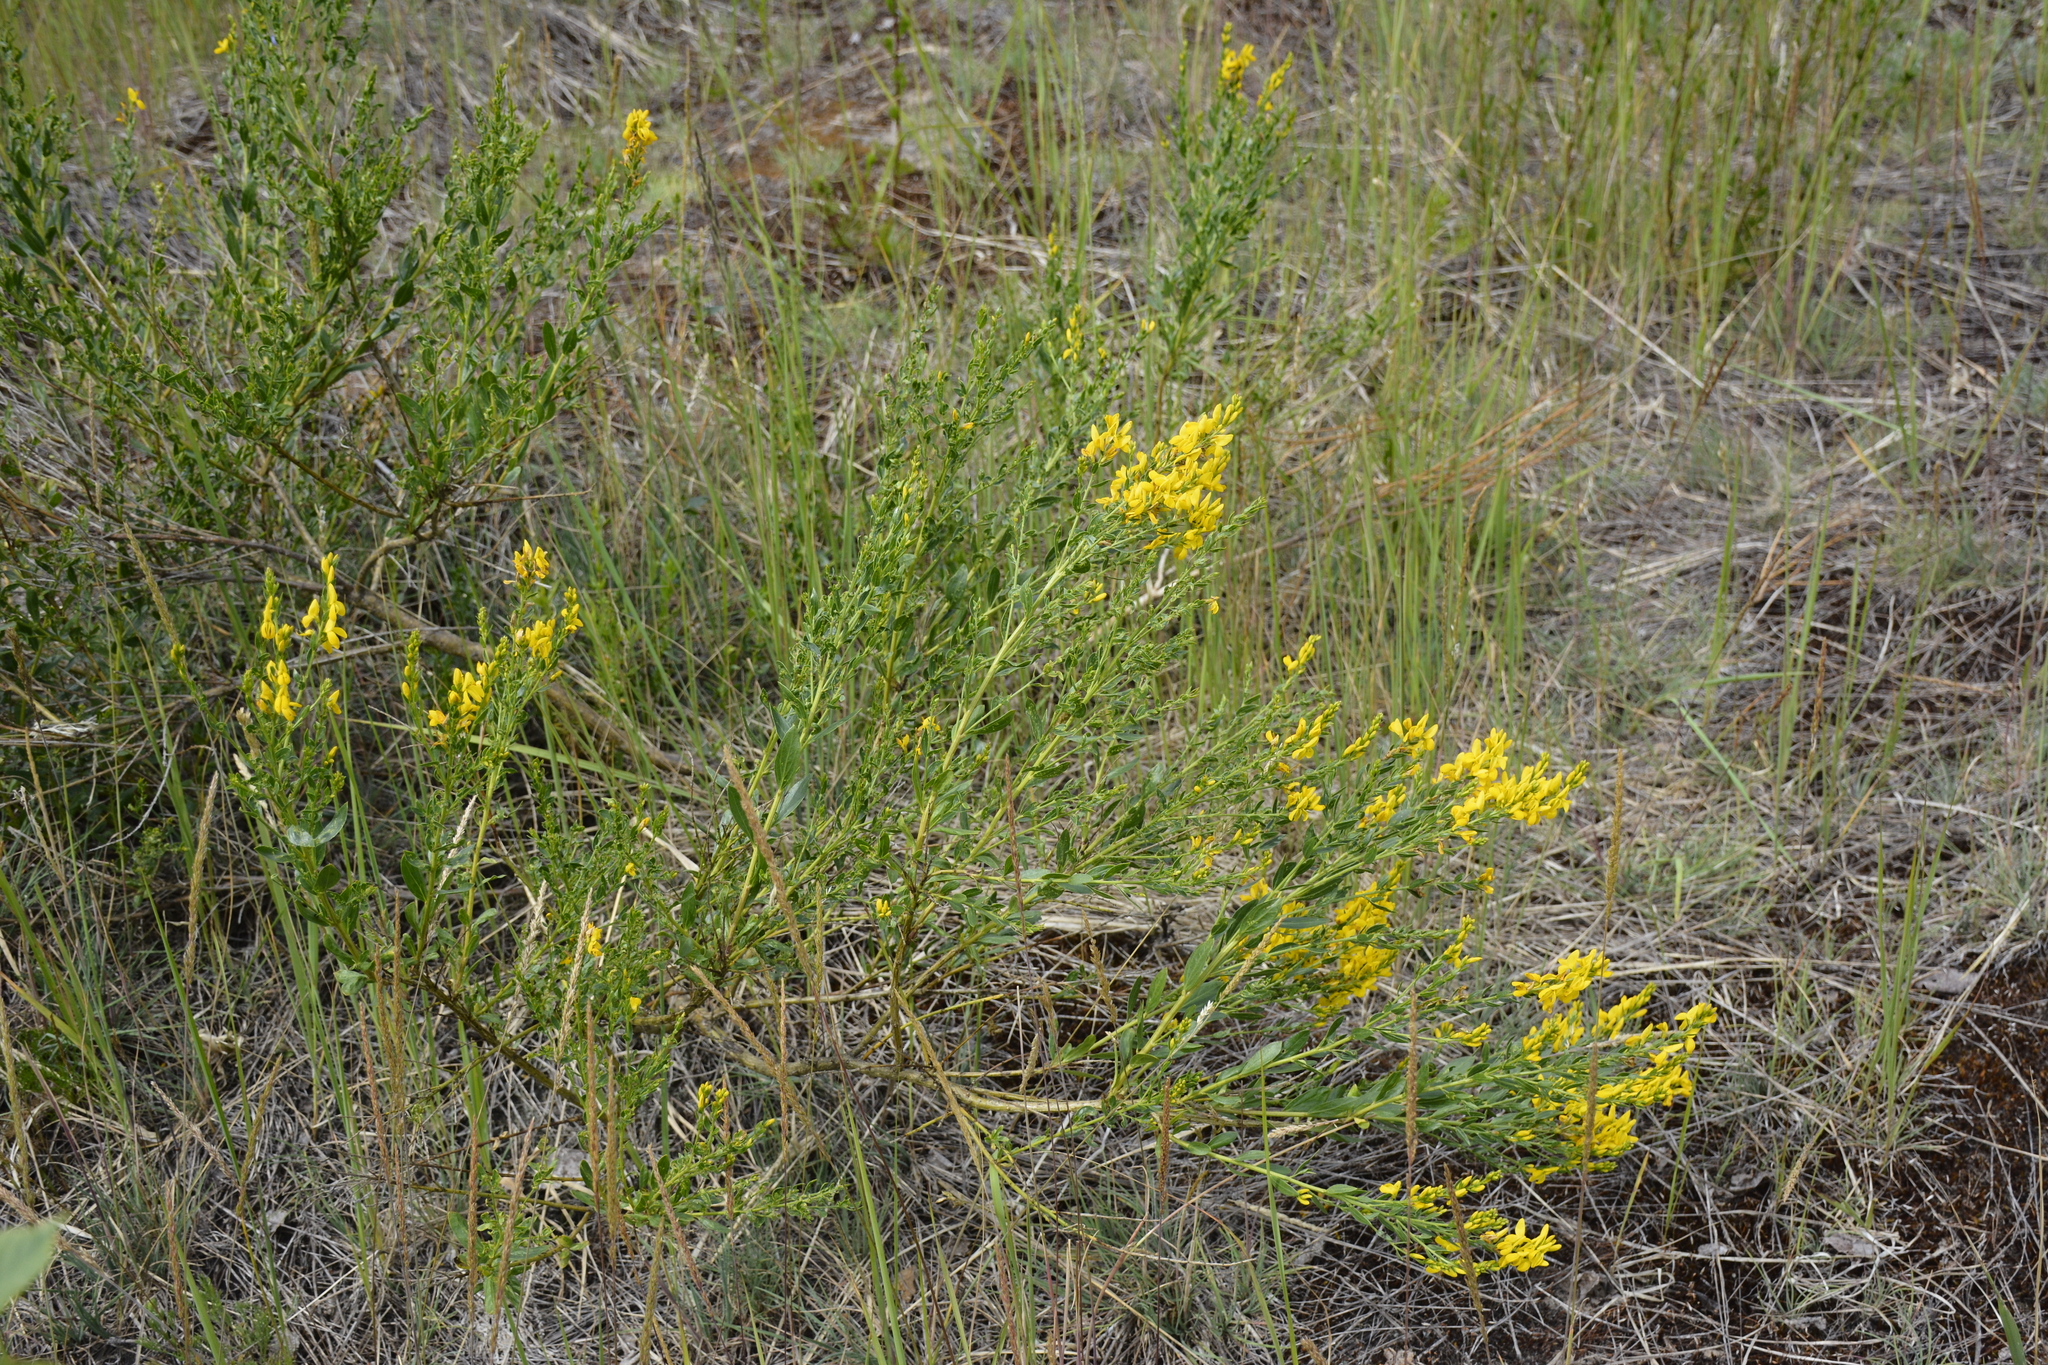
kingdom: Plantae
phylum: Tracheophyta
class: Magnoliopsida
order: Fabales
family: Fabaceae
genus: Genista
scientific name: Genista tinctoria
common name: Dyer's greenweed
